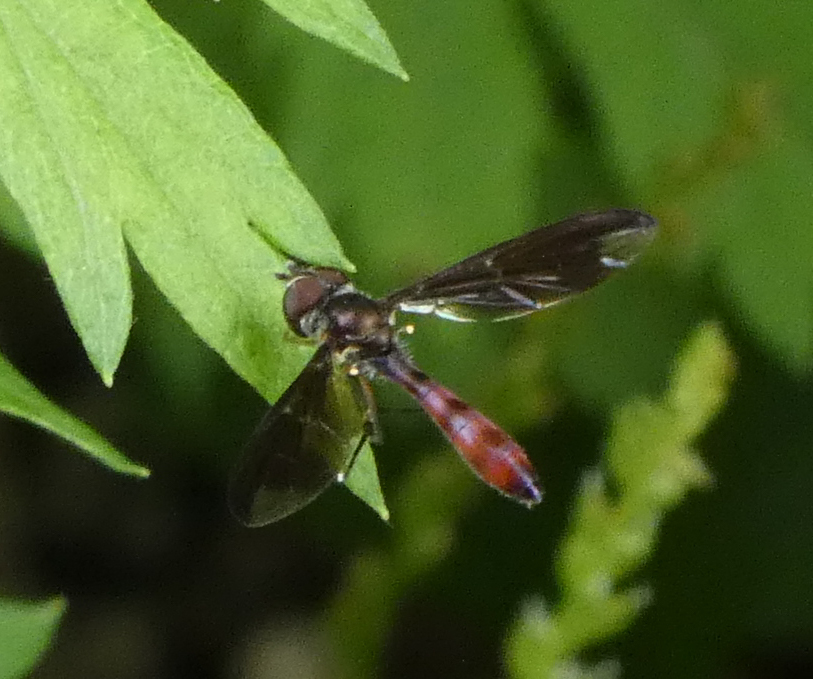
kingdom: Animalia
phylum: Arthropoda
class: Insecta
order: Diptera
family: Syrphidae
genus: Ocyptamus
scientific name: Ocyptamus fuscipennis
